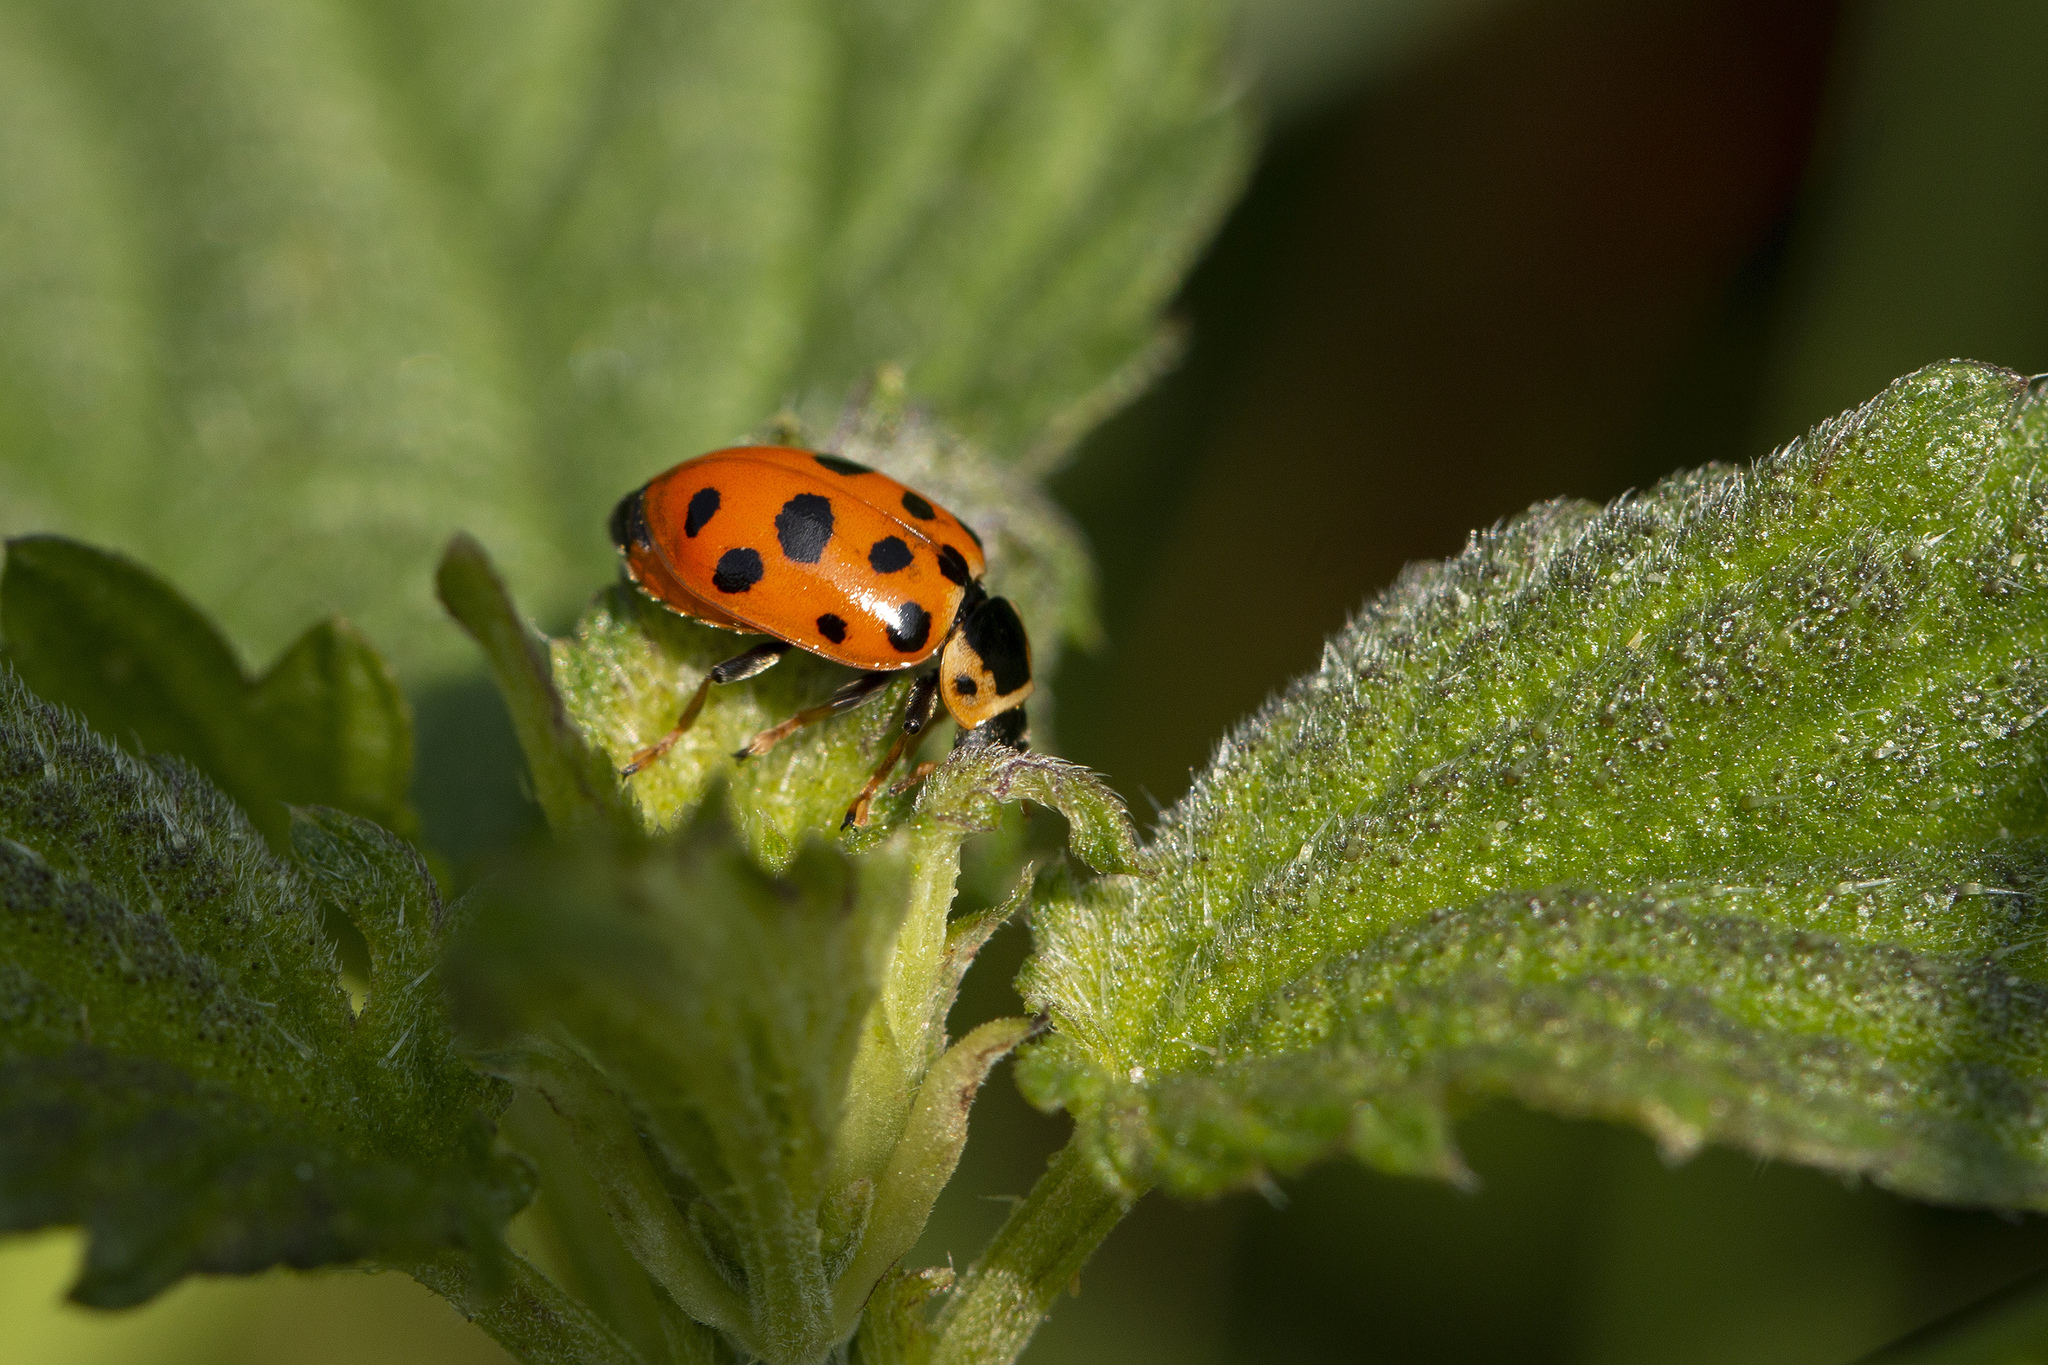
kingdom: Animalia
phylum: Arthropoda
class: Insecta
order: Coleoptera
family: Coccinellidae
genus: Hippodamia
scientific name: Hippodamia tredecimpunctata
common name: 13-spot ladybird
